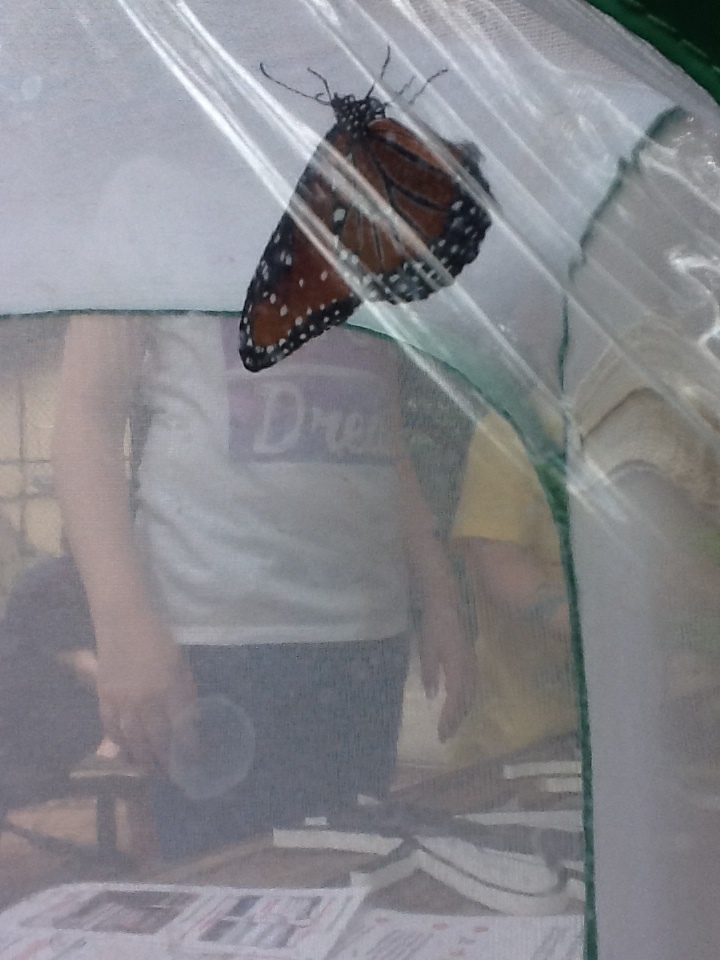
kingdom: Animalia
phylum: Arthropoda
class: Insecta
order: Lepidoptera
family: Nymphalidae
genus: Danaus
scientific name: Danaus gilippus
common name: Queen
